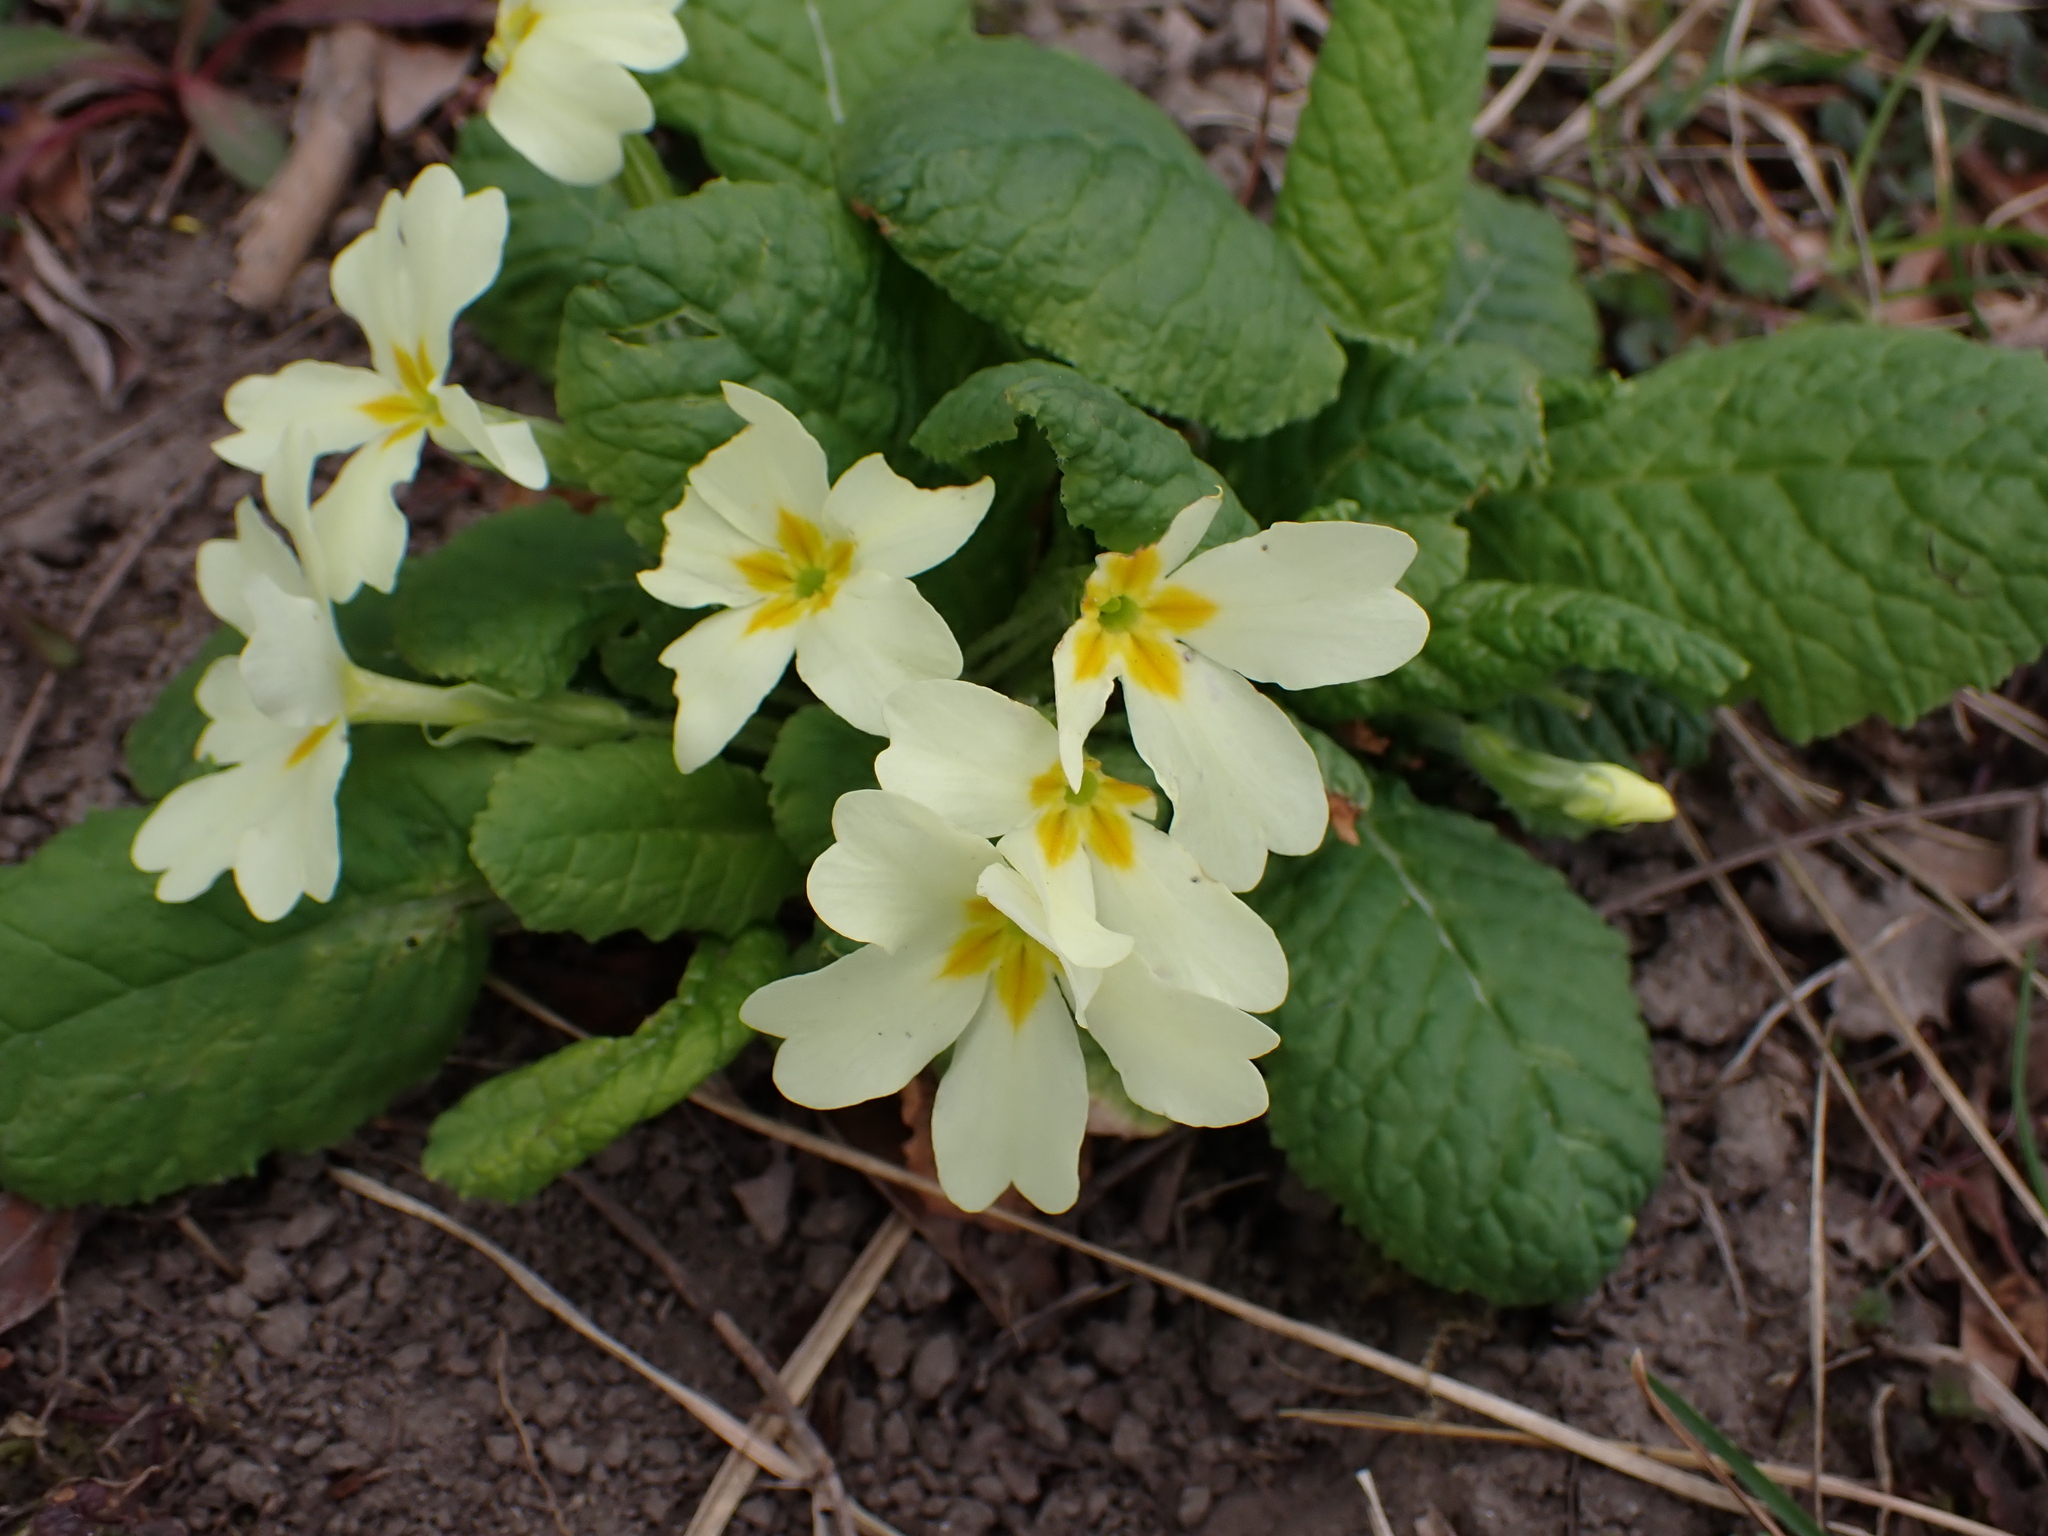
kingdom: Plantae
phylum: Tracheophyta
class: Magnoliopsida
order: Ericales
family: Primulaceae
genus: Primula
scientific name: Primula vulgaris
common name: Primrose
